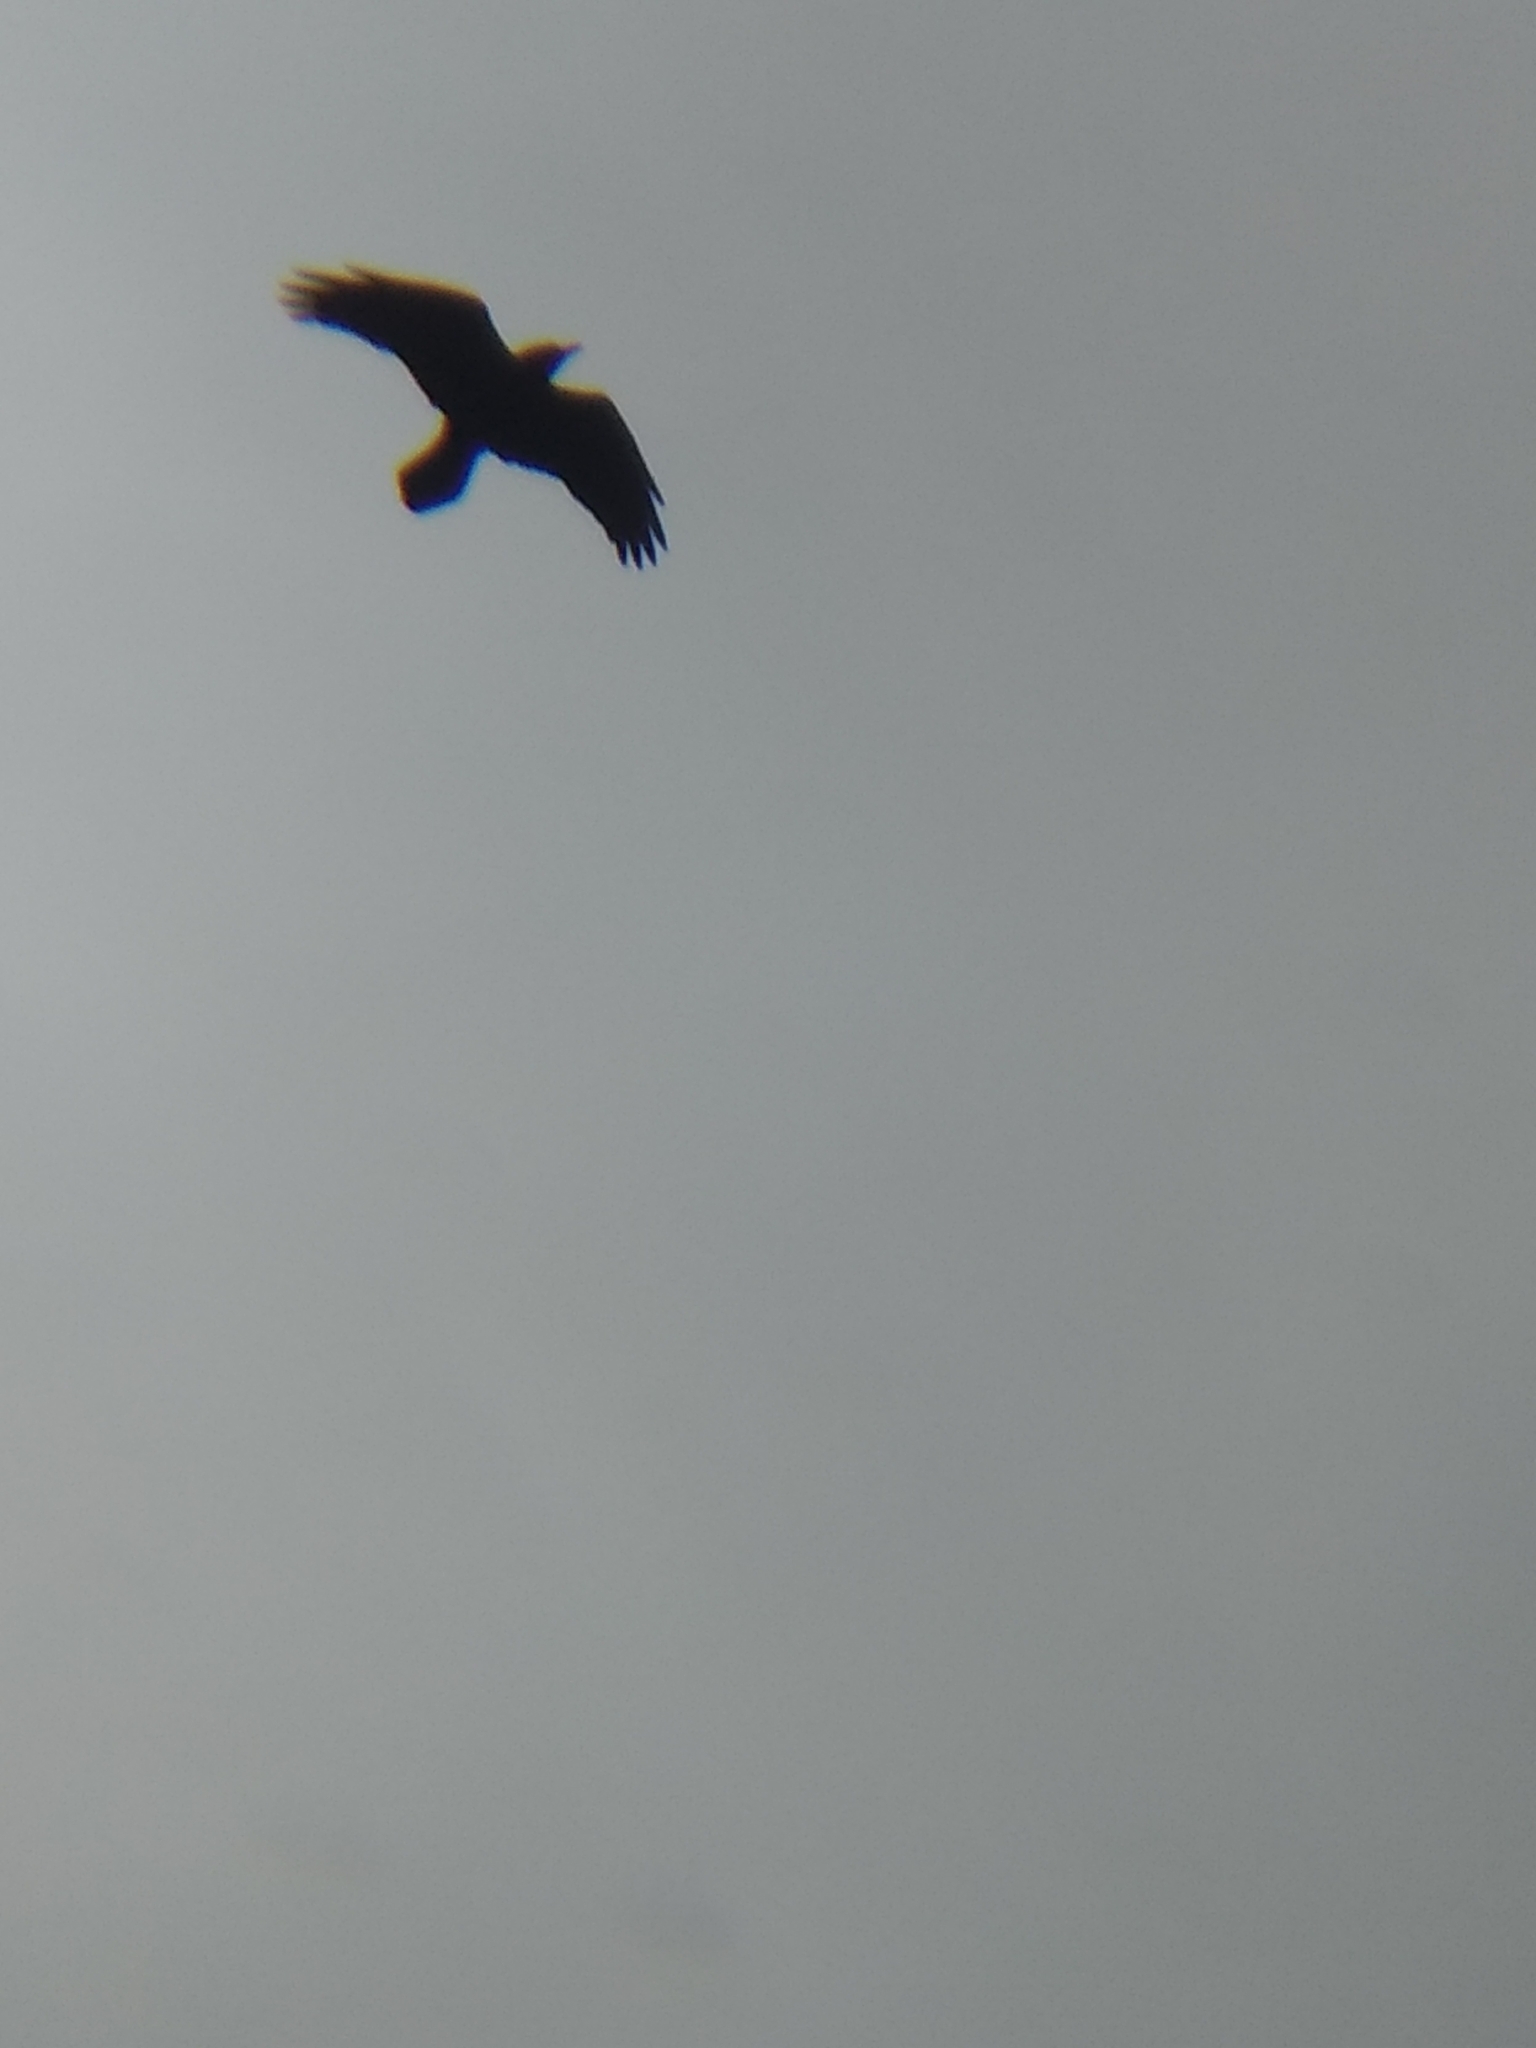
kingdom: Animalia
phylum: Chordata
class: Aves
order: Passeriformes
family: Corvidae
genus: Corvus
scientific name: Corvus corax
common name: Common raven
